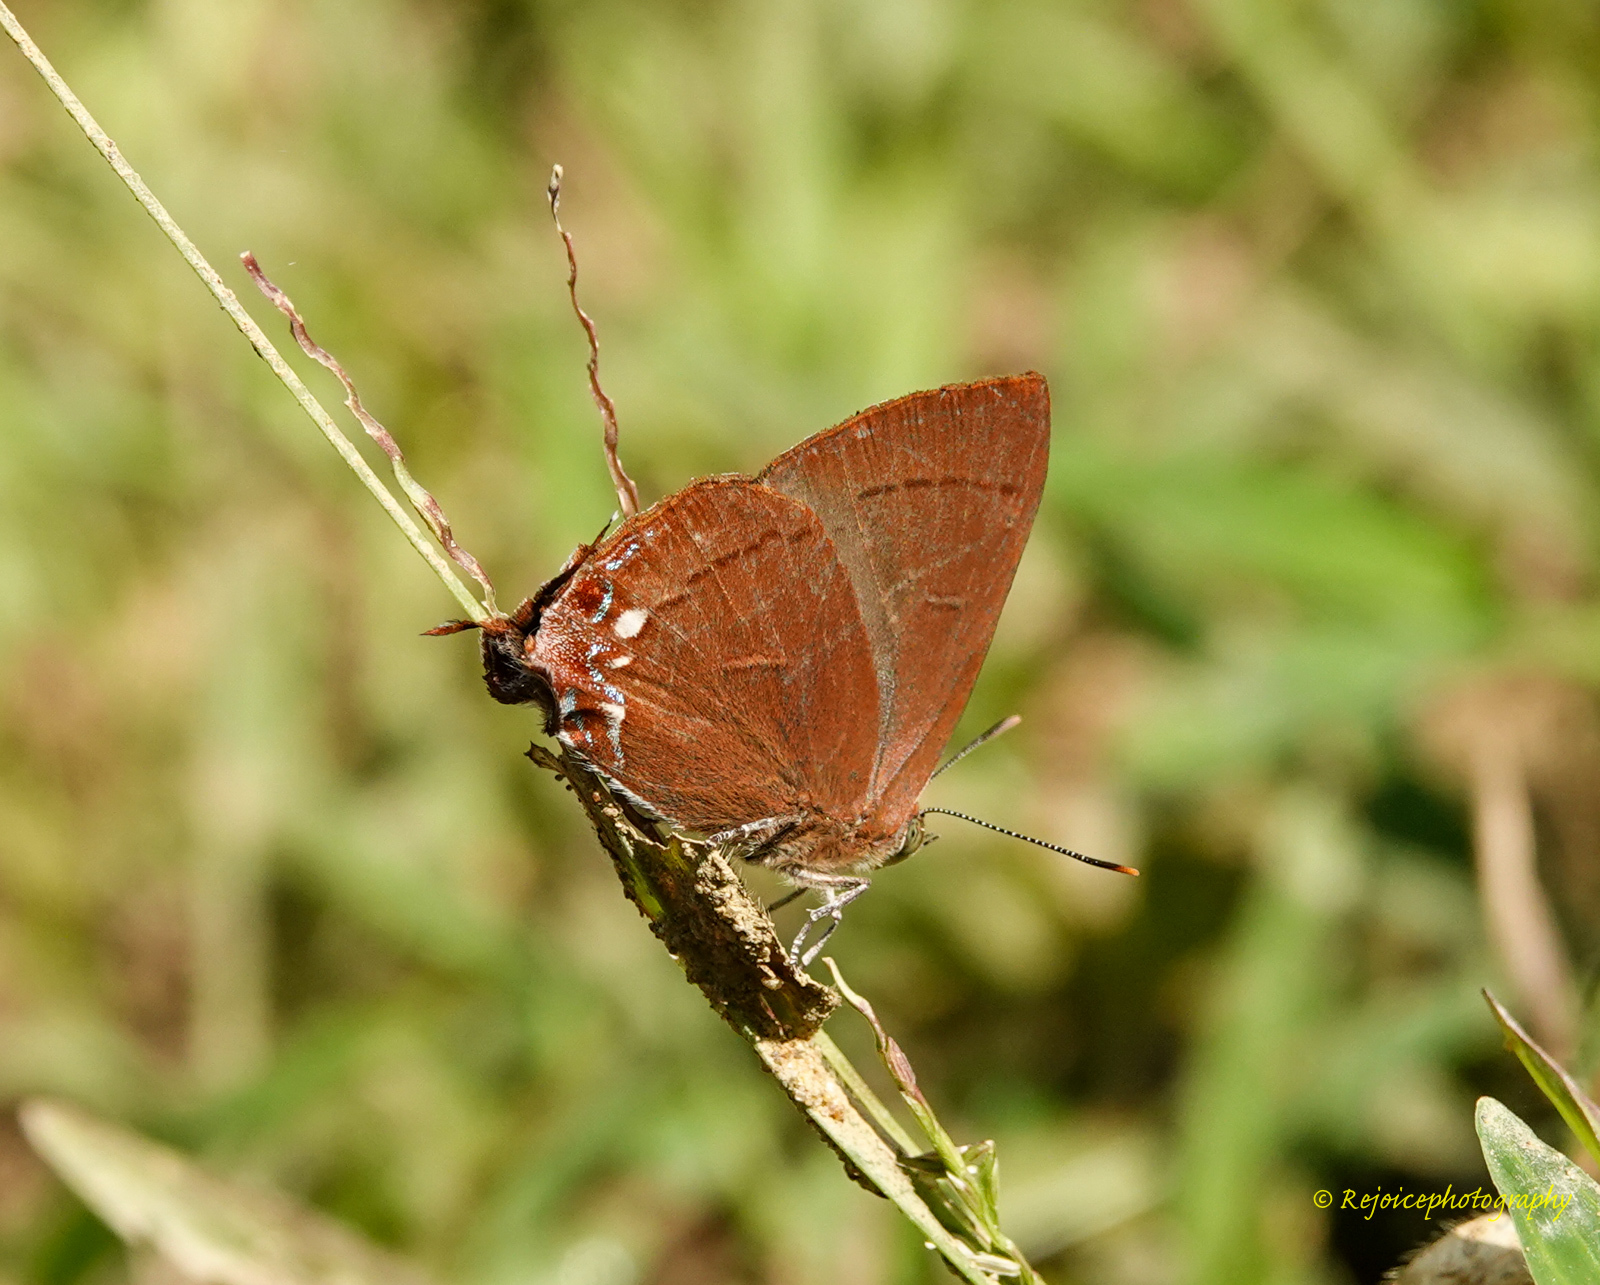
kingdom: Animalia
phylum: Arthropoda
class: Insecta
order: Lepidoptera
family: Lycaenidae
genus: Remelana
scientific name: Remelana jangala
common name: Chocolate royal
